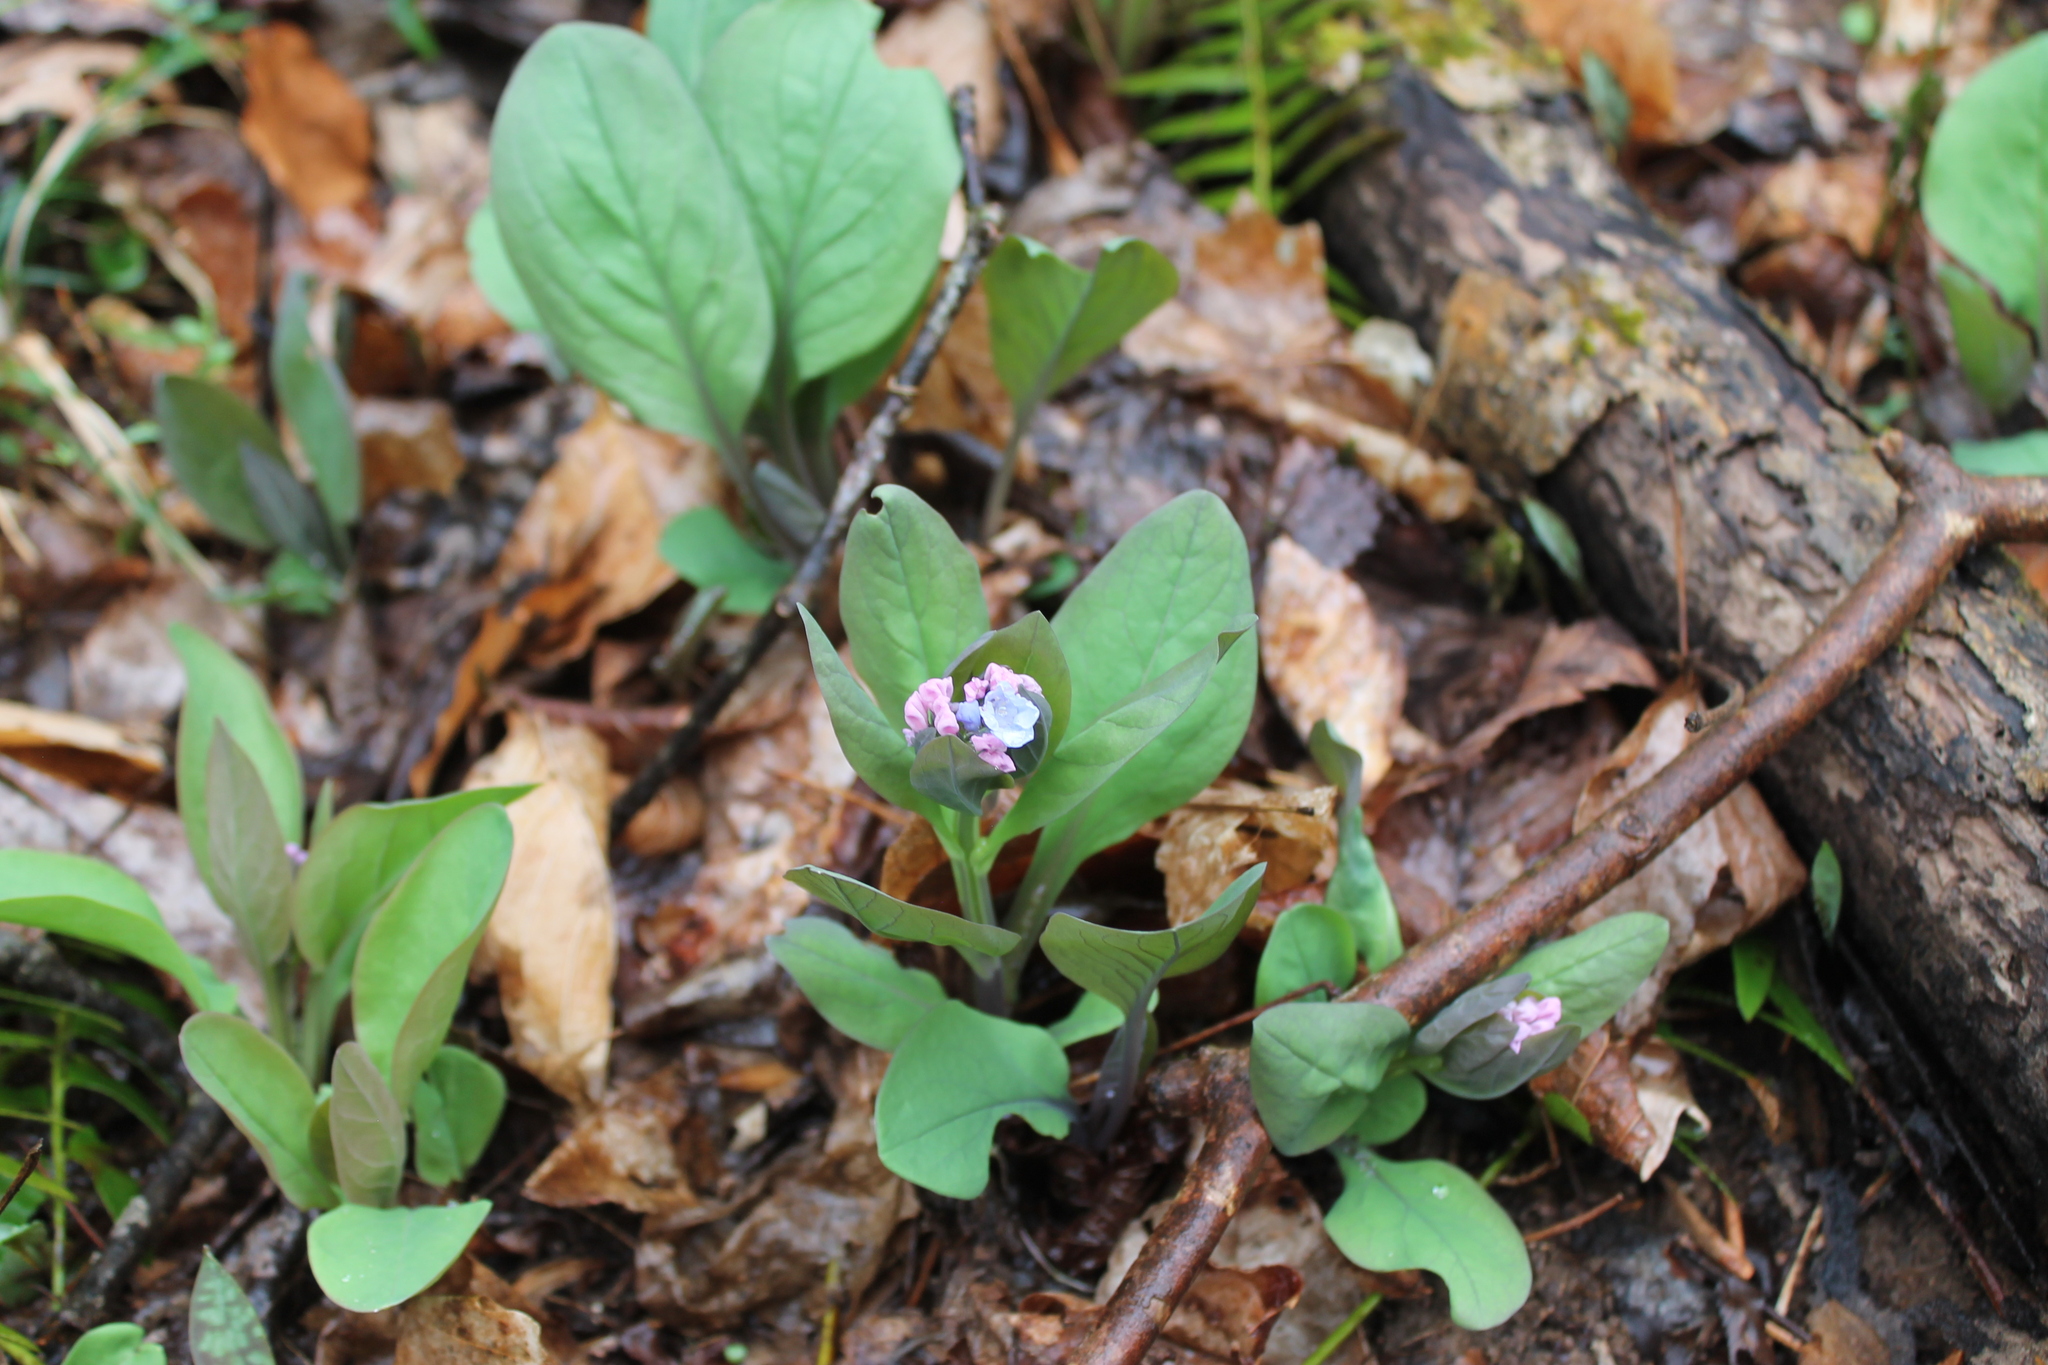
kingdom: Plantae
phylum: Tracheophyta
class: Magnoliopsida
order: Boraginales
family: Boraginaceae
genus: Mertensia
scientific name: Mertensia virginica
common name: Virginia bluebells
